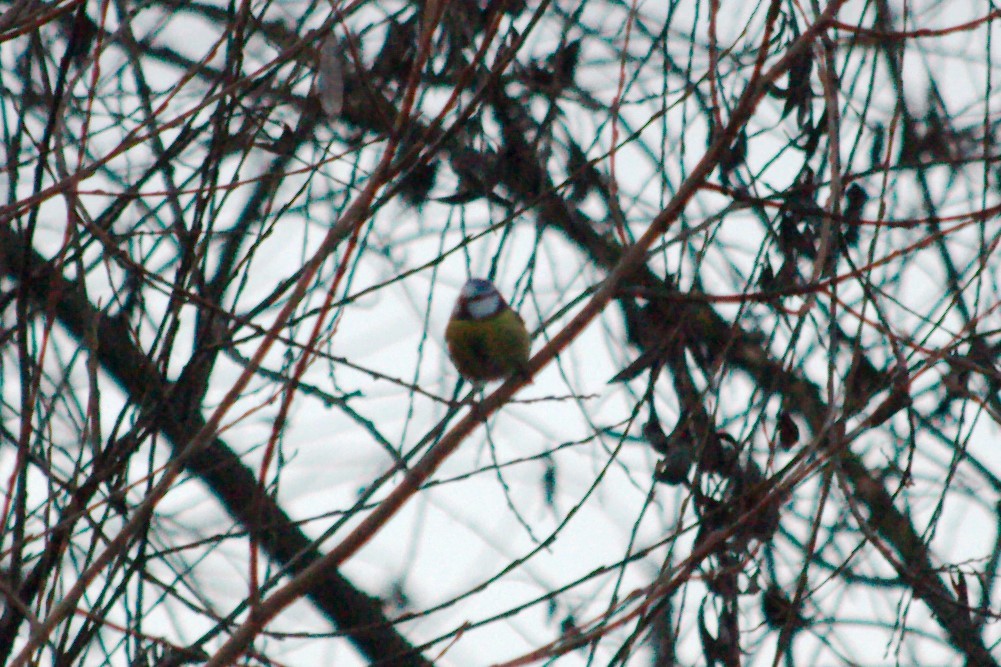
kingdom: Animalia
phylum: Chordata
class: Aves
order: Passeriformes
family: Paridae
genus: Cyanistes
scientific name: Cyanistes caeruleus
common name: Eurasian blue tit
